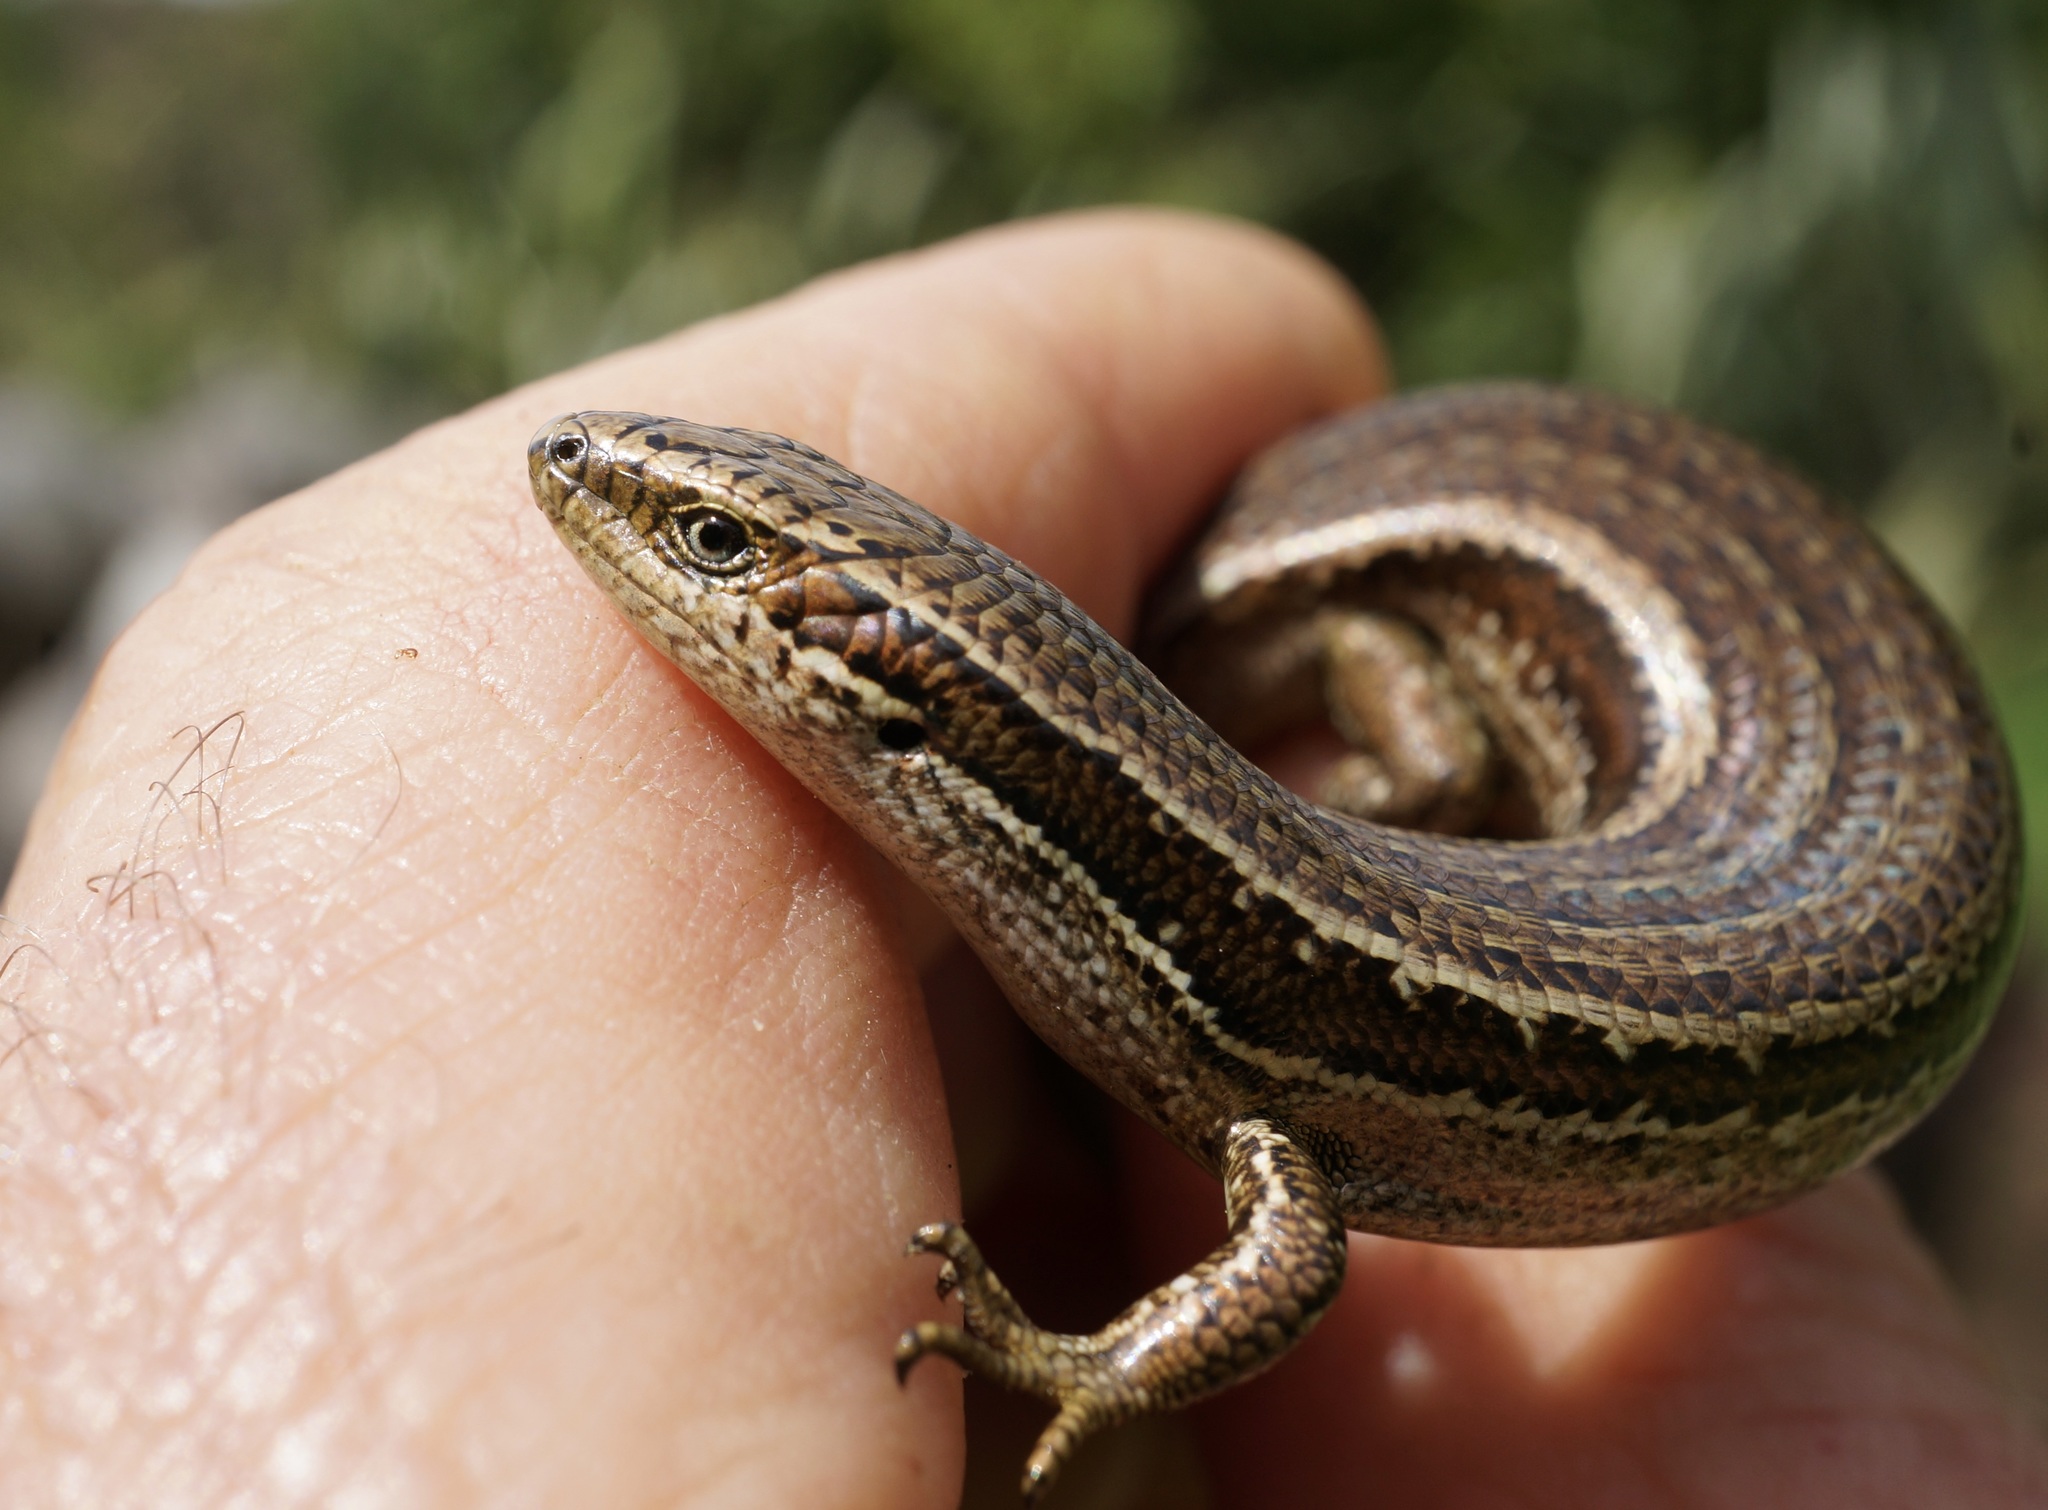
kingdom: Animalia
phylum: Chordata
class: Squamata
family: Scincidae
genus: Oligosoma
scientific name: Oligosoma polychroma
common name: Common new zealand skink
